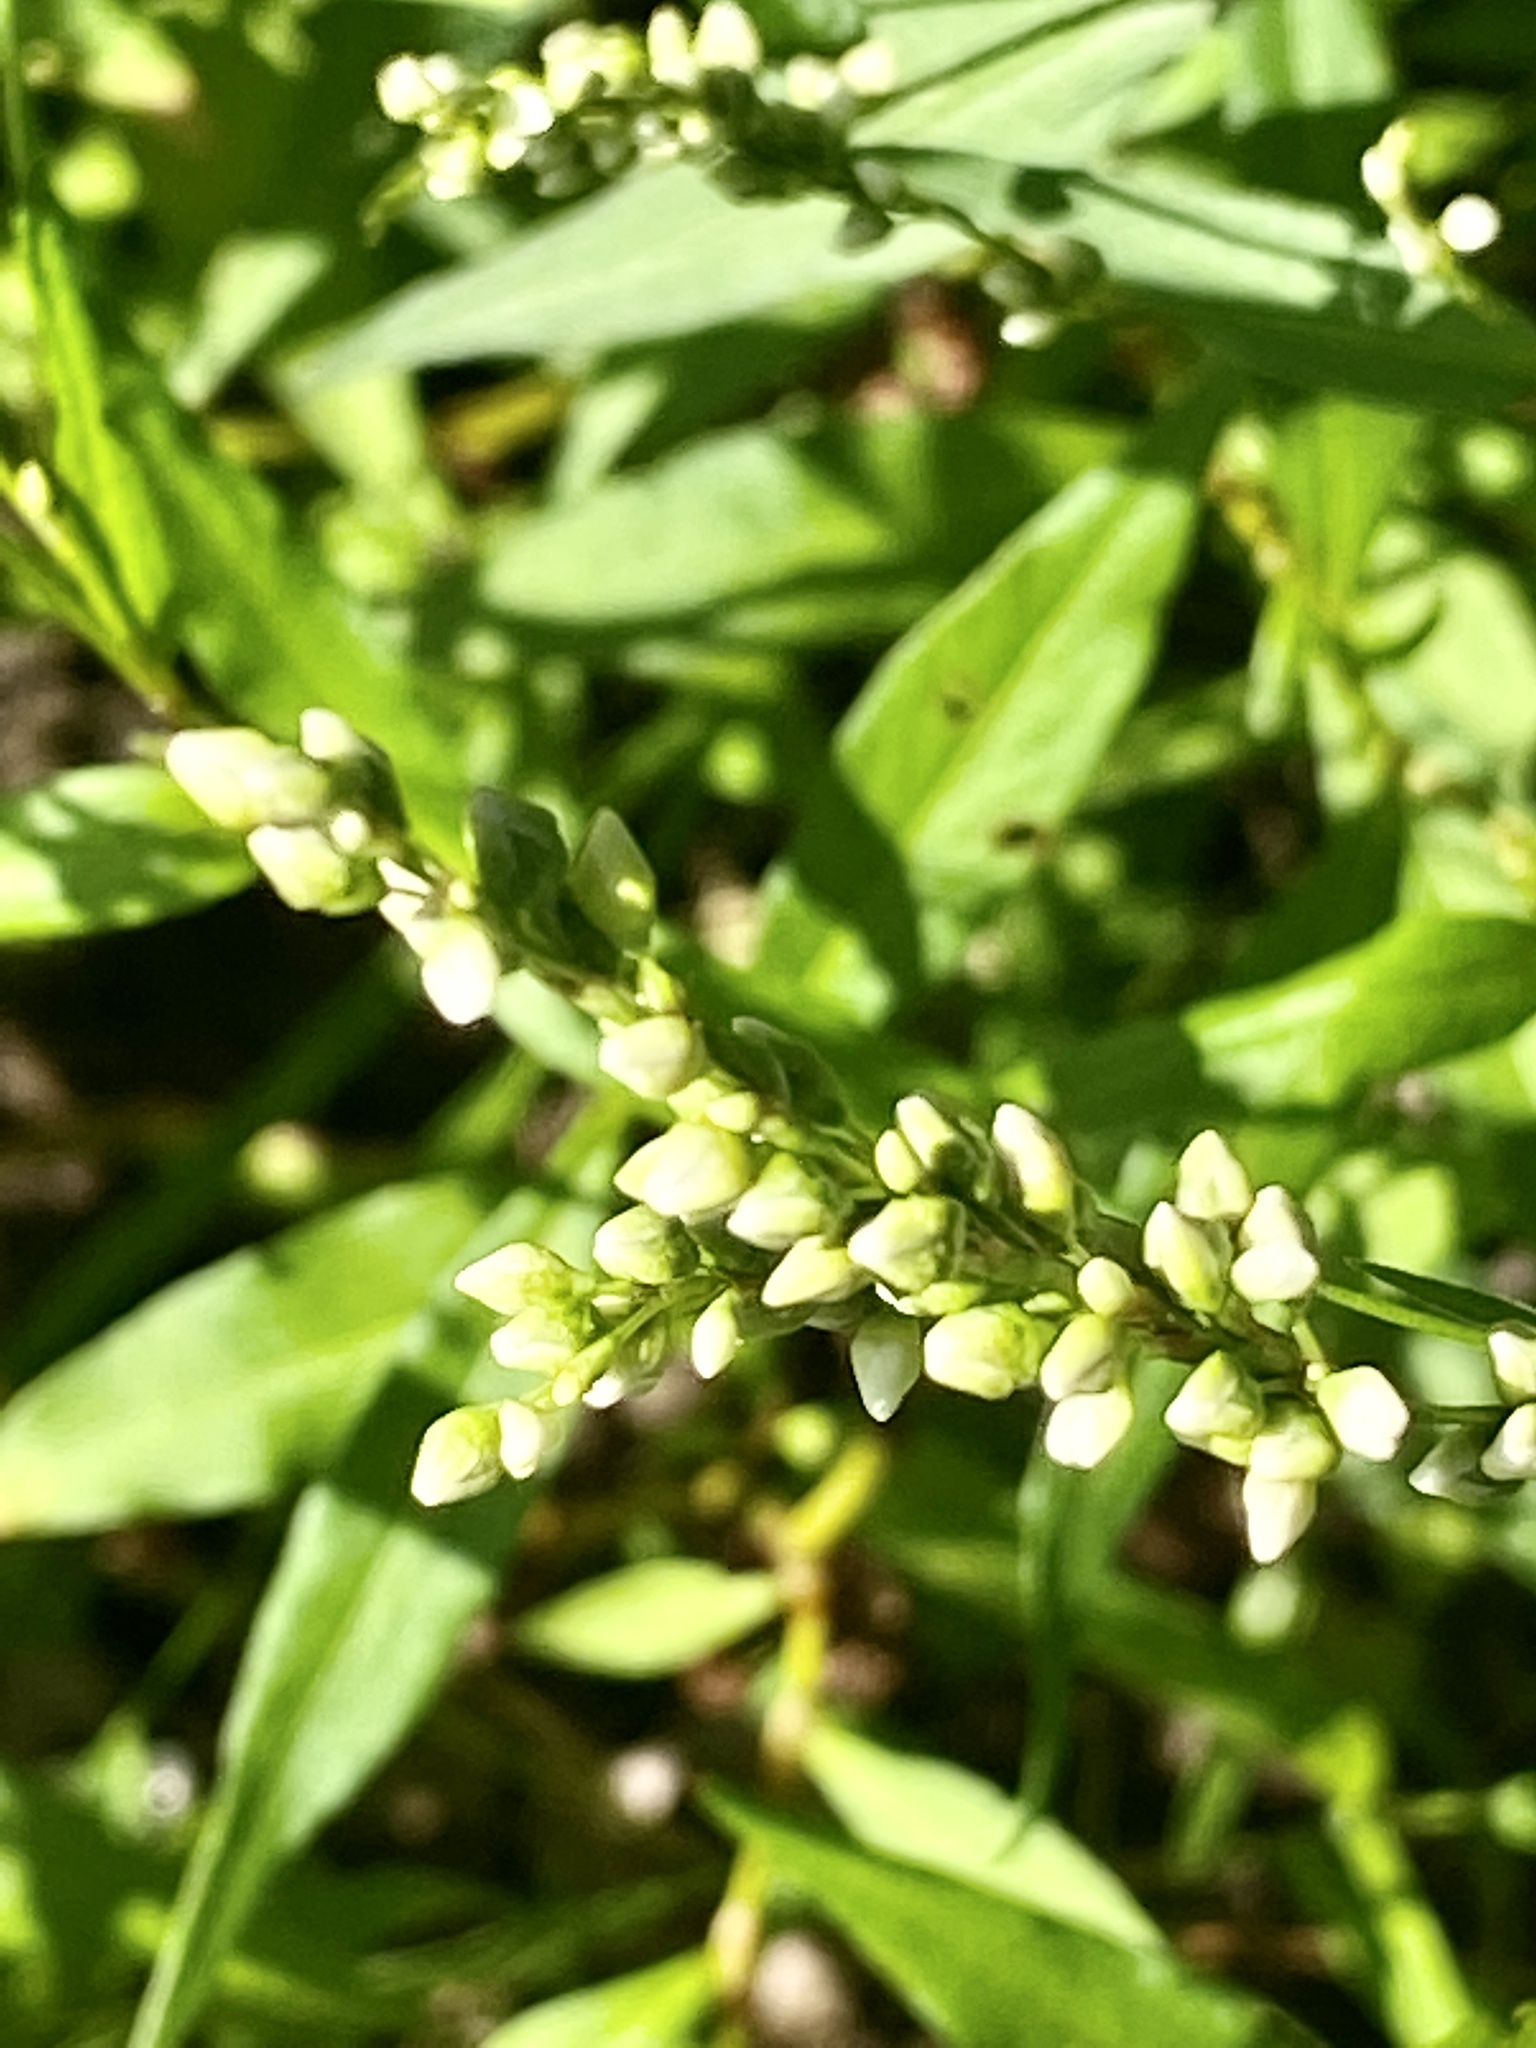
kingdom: Plantae
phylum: Tracheophyta
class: Magnoliopsida
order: Caryophyllales
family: Polygonaceae
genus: Persicaria
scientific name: Persicaria punctata
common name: Dotted smartweed
